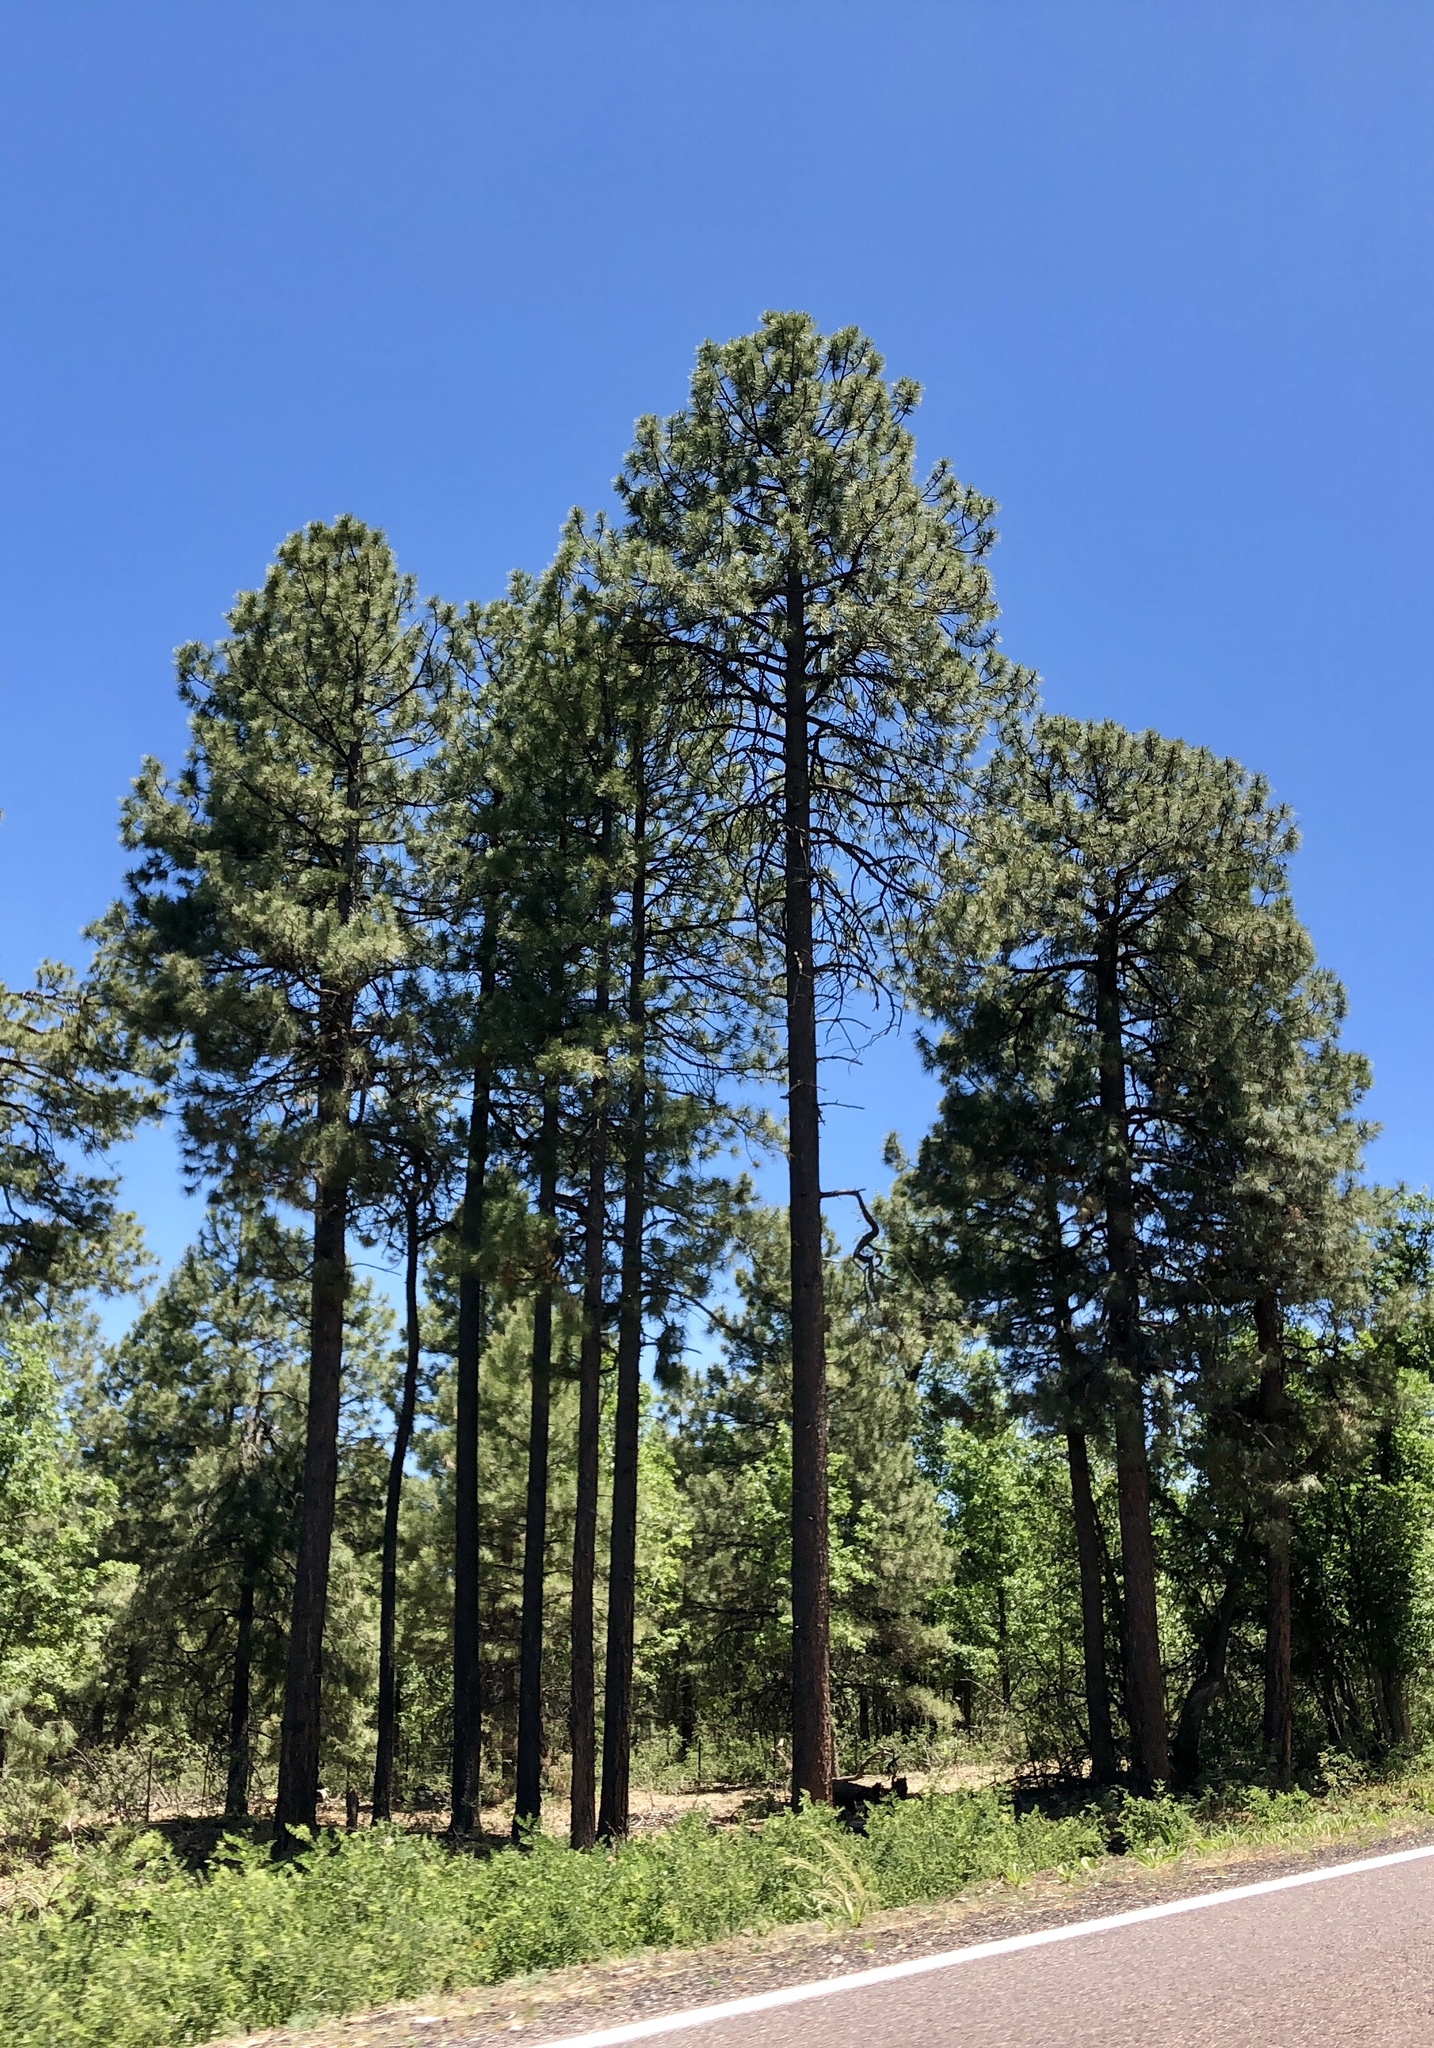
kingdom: Plantae
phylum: Tracheophyta
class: Pinopsida
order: Pinales
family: Pinaceae
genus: Pinus
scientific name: Pinus ponderosa
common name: Western yellow-pine
